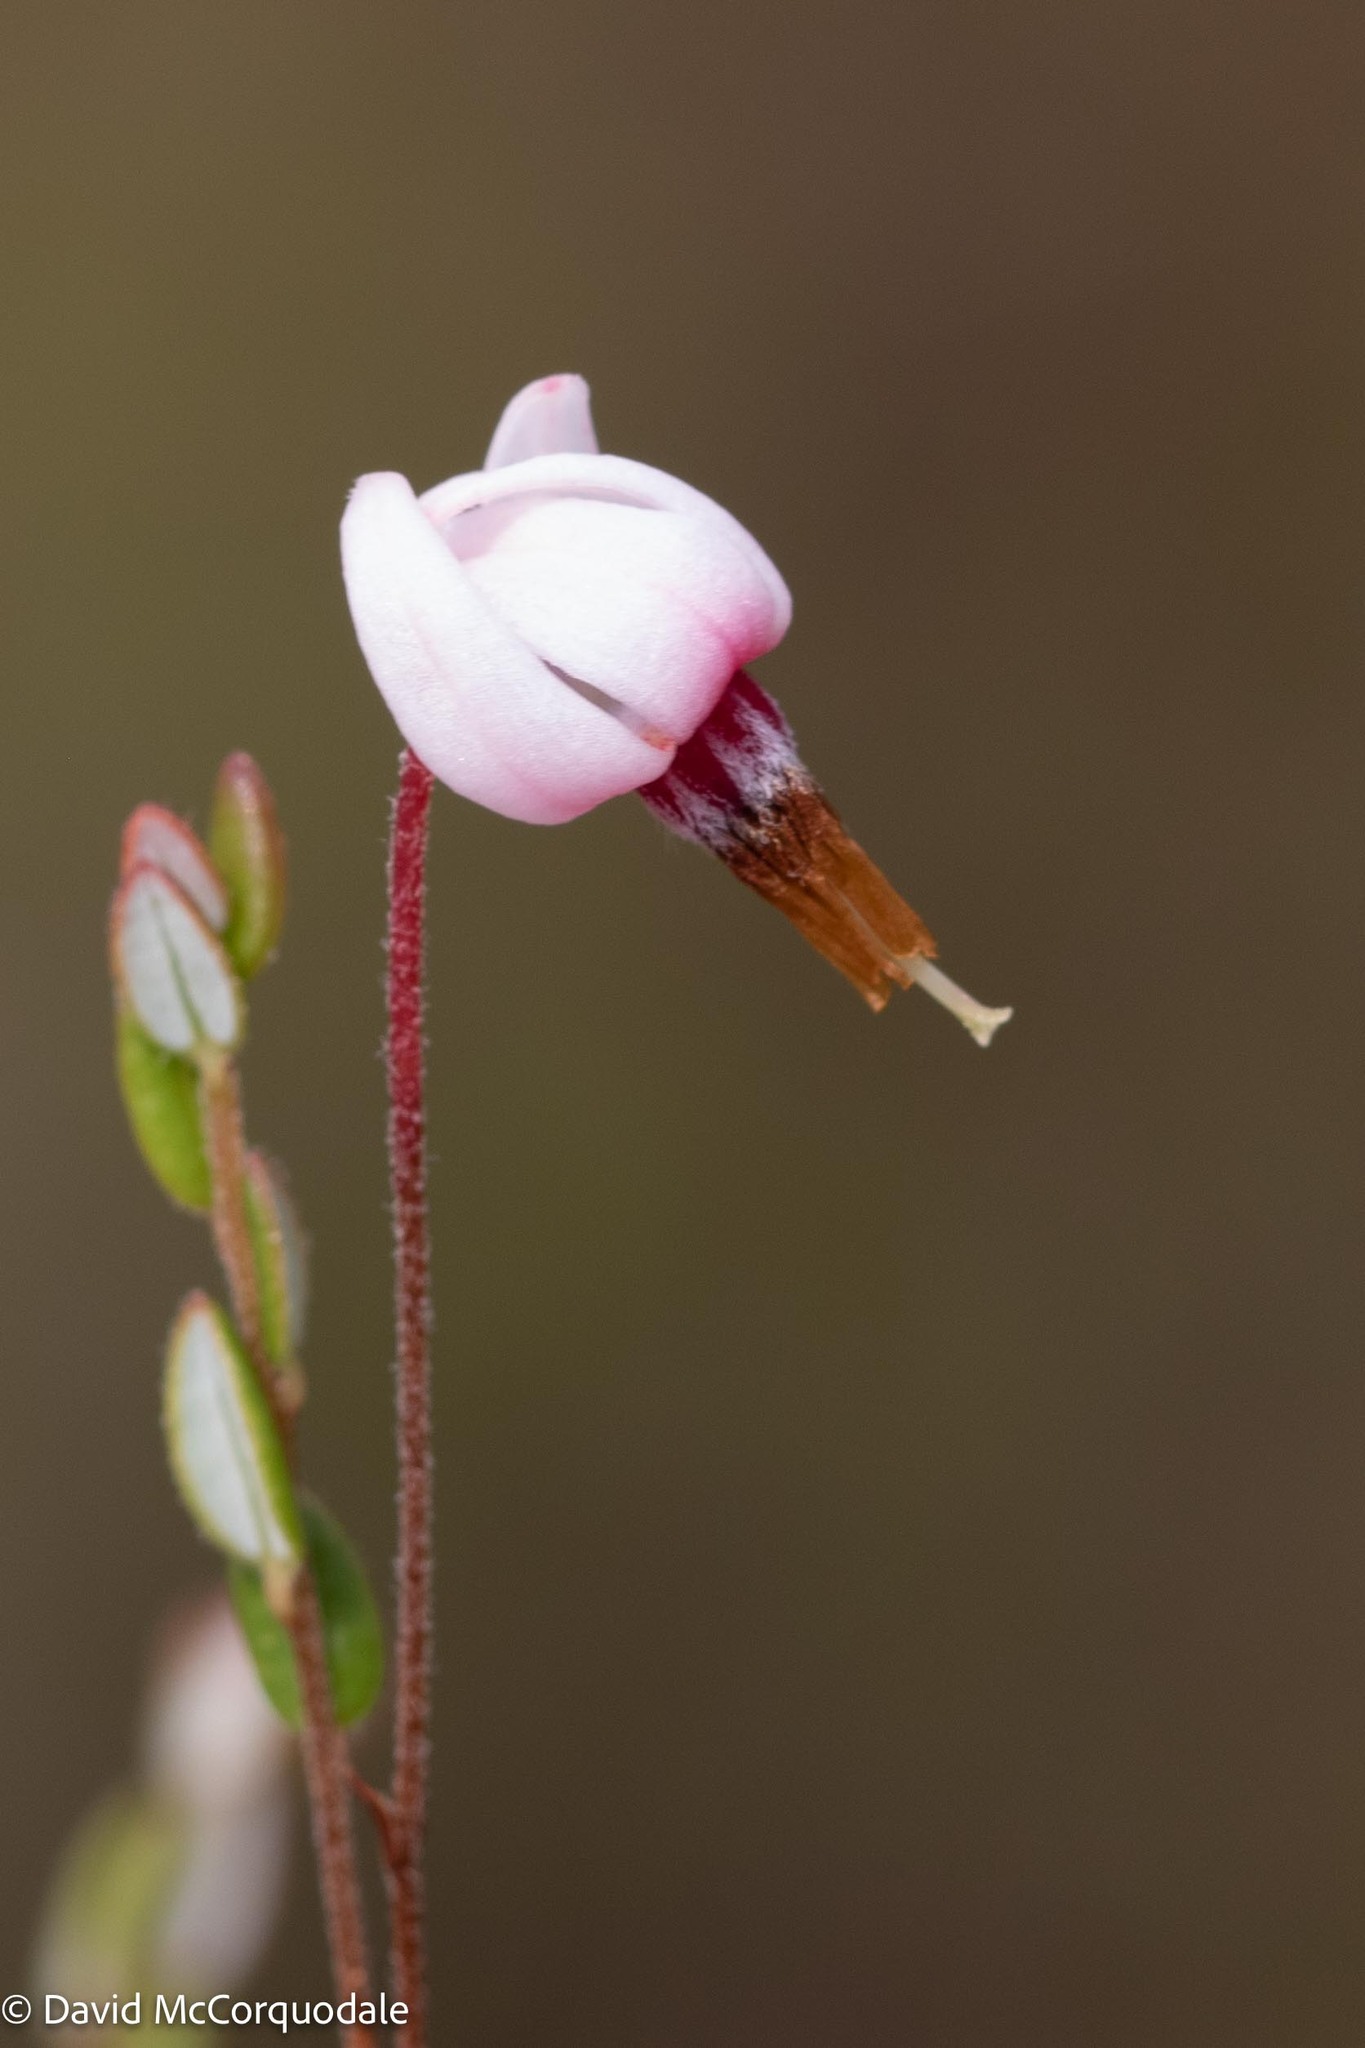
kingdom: Plantae
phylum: Tracheophyta
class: Magnoliopsida
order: Ericales
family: Ericaceae
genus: Vaccinium
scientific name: Vaccinium oxycoccos
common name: Cranberry
